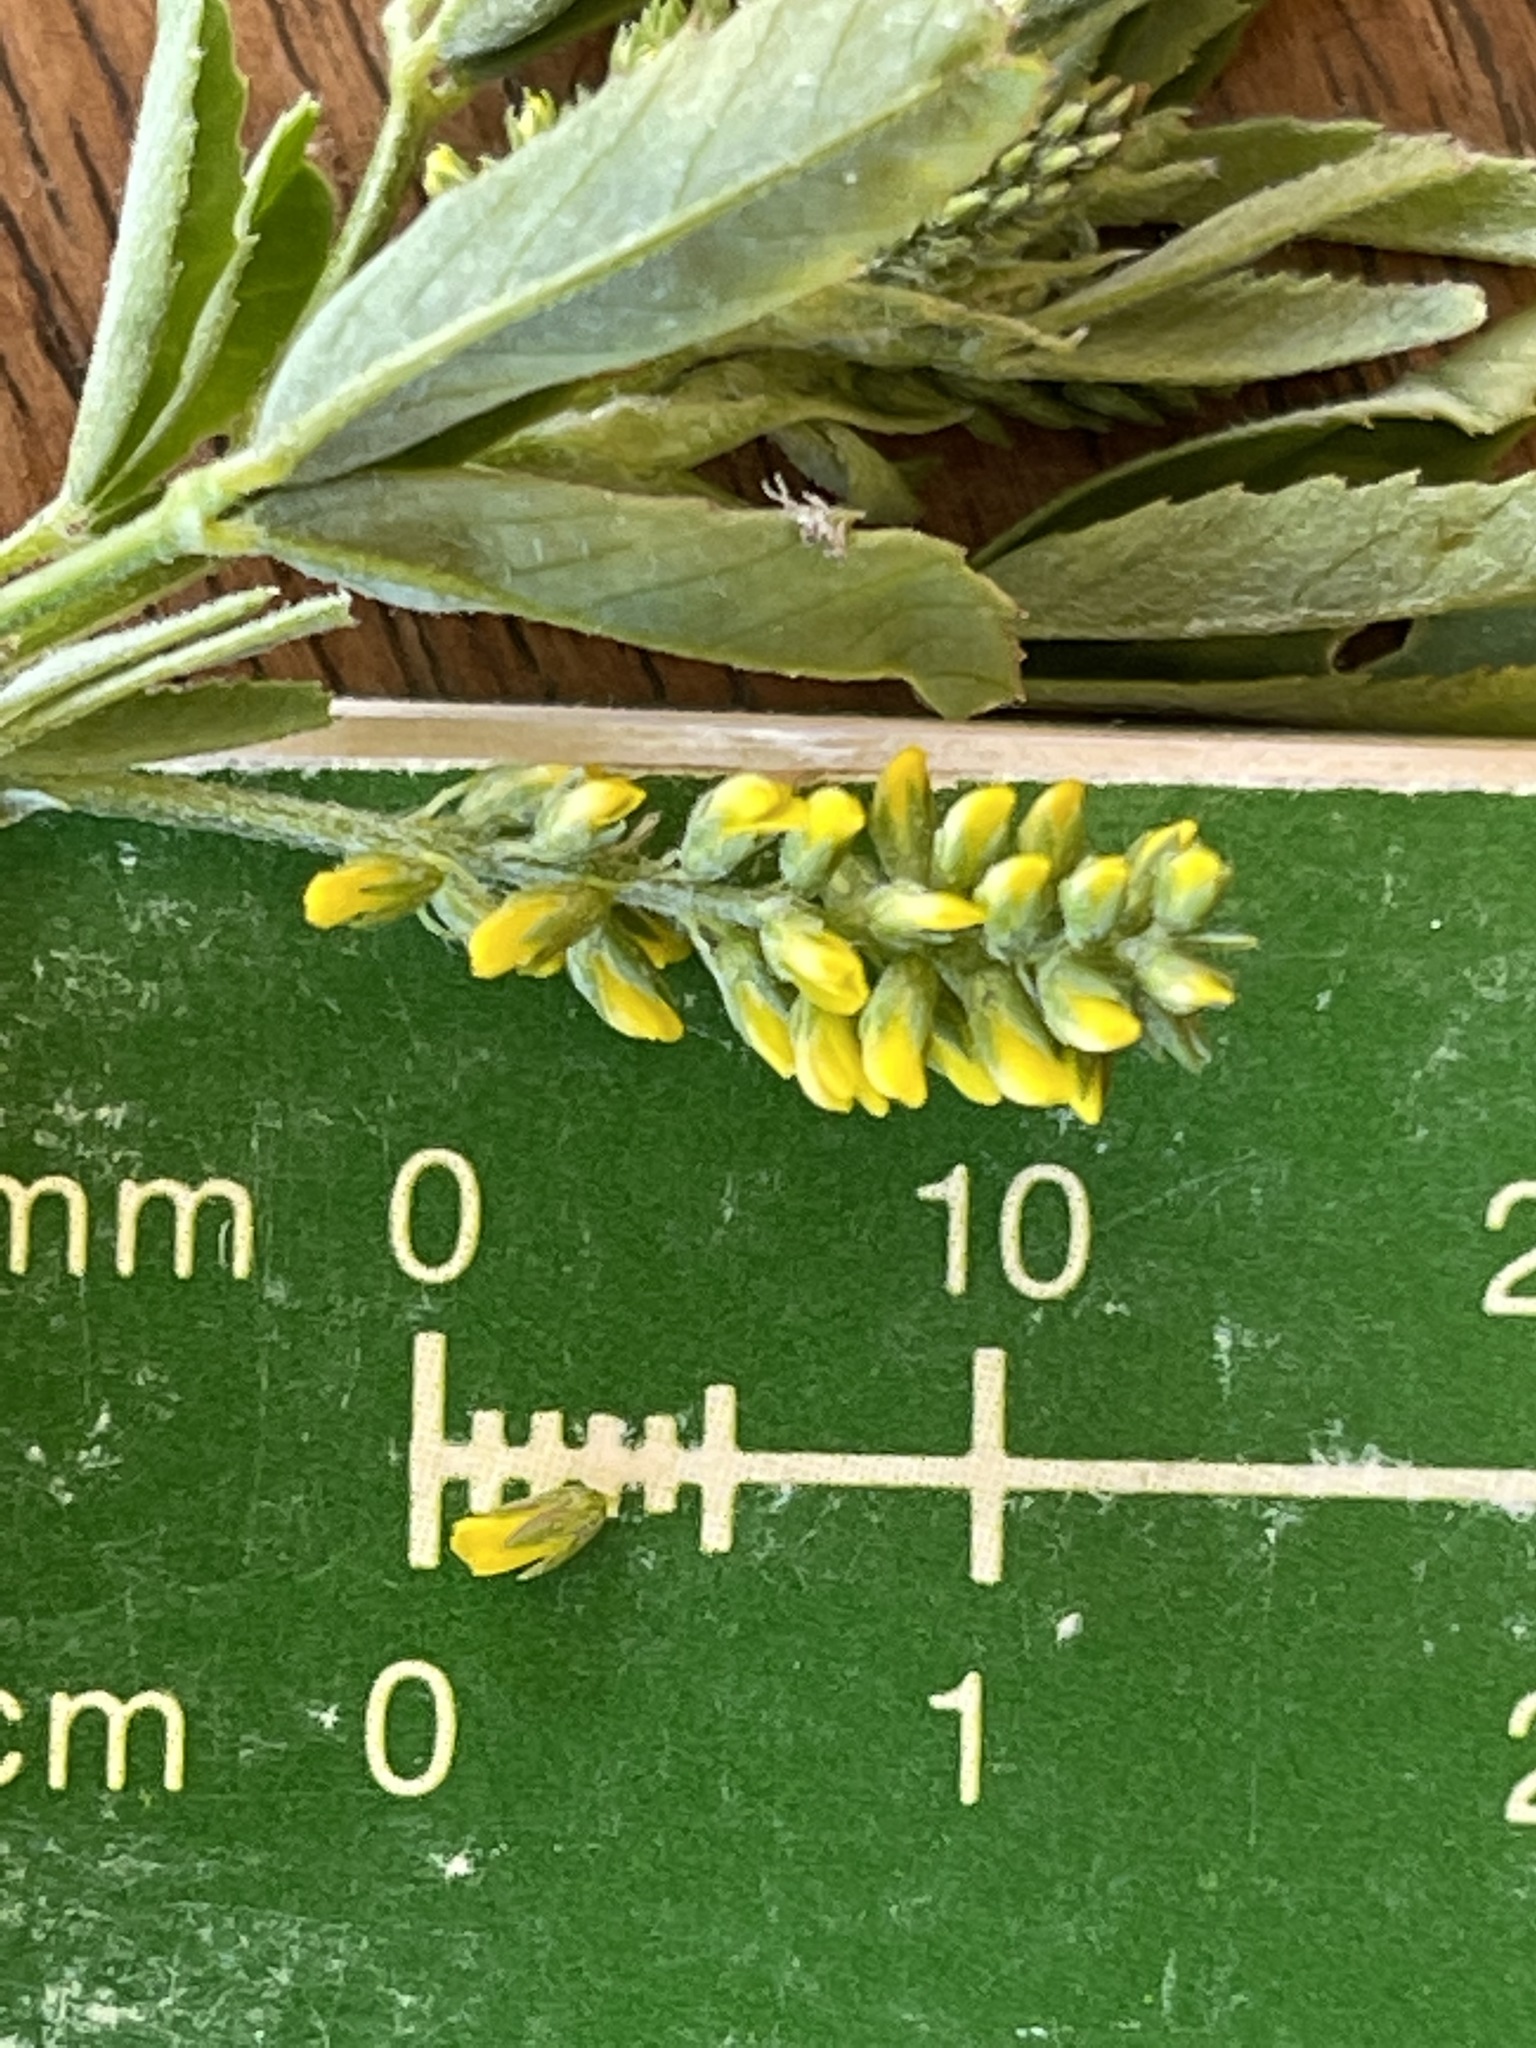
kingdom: Plantae
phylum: Tracheophyta
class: Magnoliopsida
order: Fabales
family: Fabaceae
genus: Melilotus
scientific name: Melilotus indicus
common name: Small melilot
